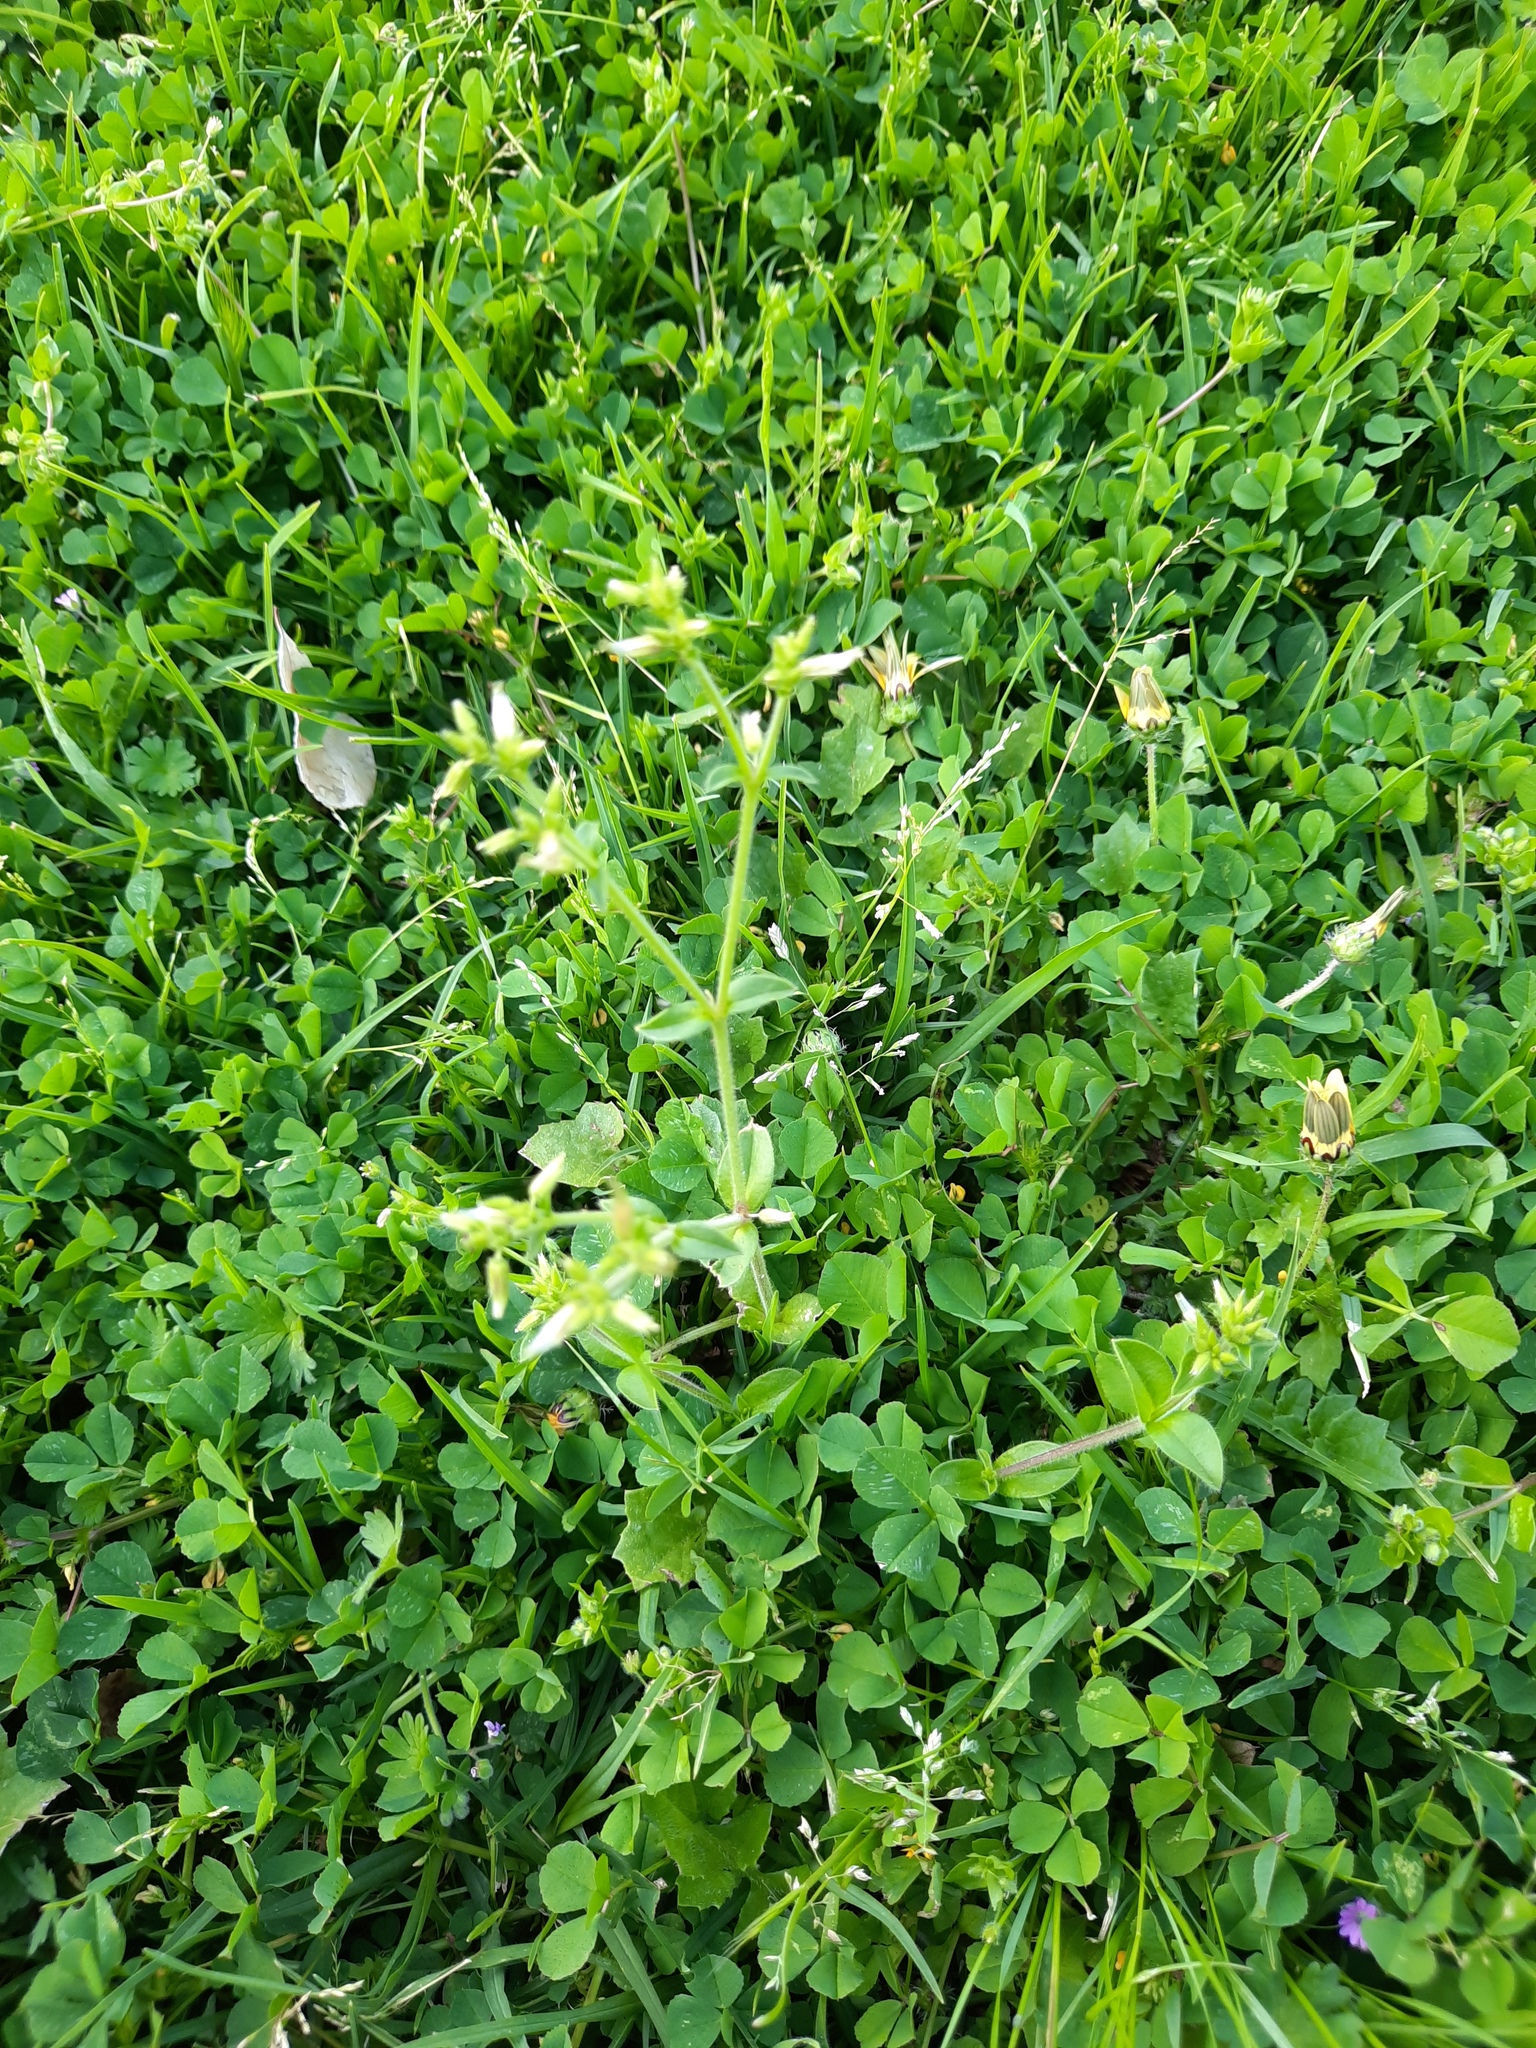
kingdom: Plantae
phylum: Tracheophyta
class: Magnoliopsida
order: Caryophyllales
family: Caryophyllaceae
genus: Cerastium
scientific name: Cerastium glomeratum
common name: Sticky chickweed
